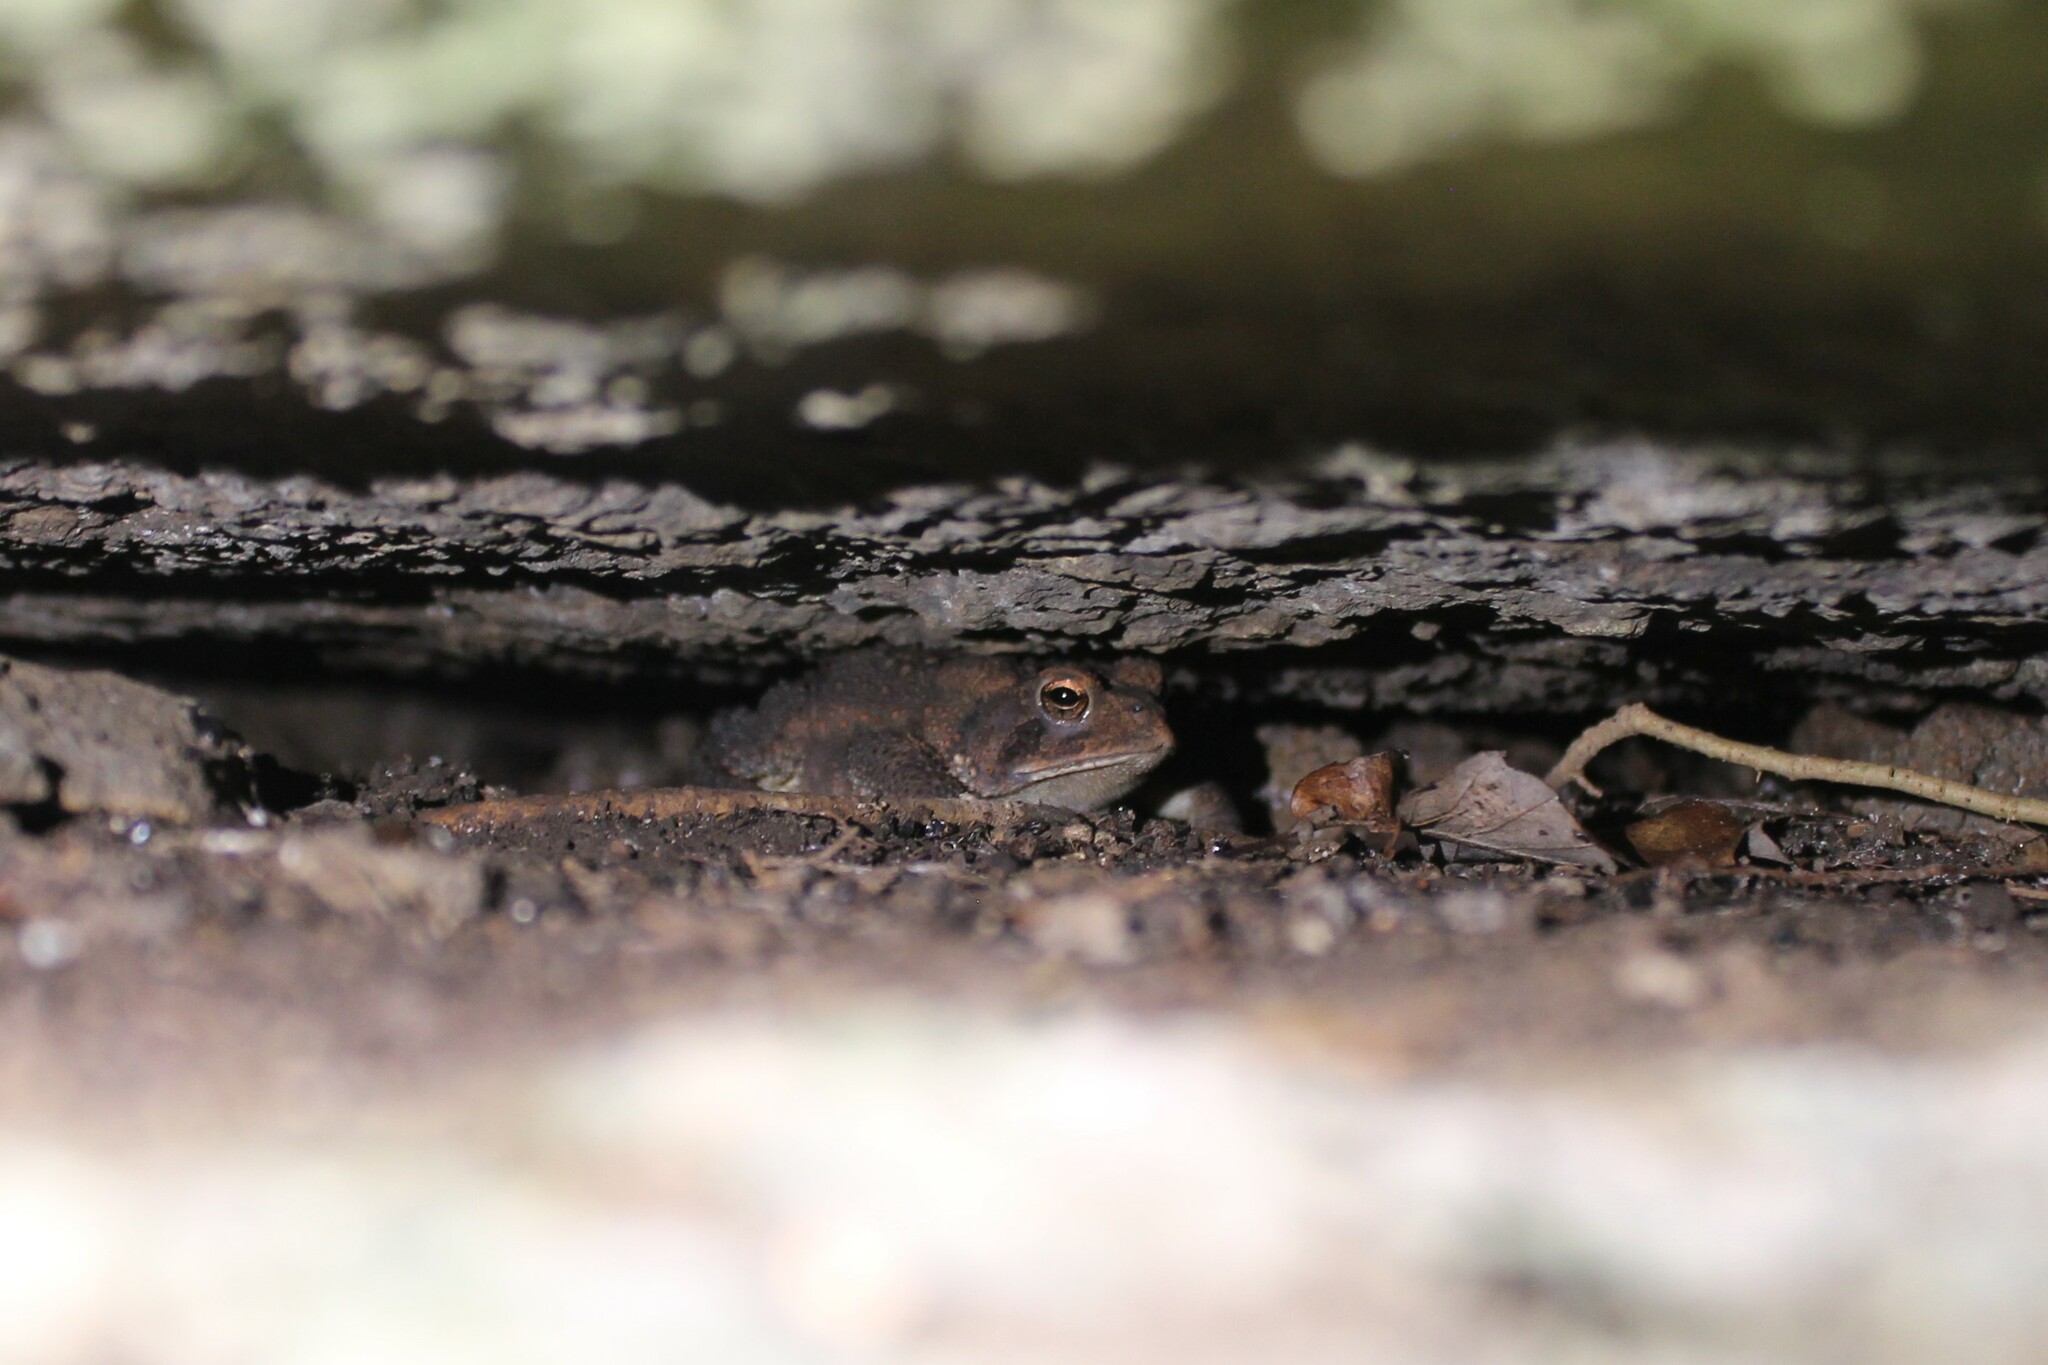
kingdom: Animalia
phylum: Chordata
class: Amphibia
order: Anura
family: Bufonidae
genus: Anaxyrus
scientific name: Anaxyrus americanus
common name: American toad
